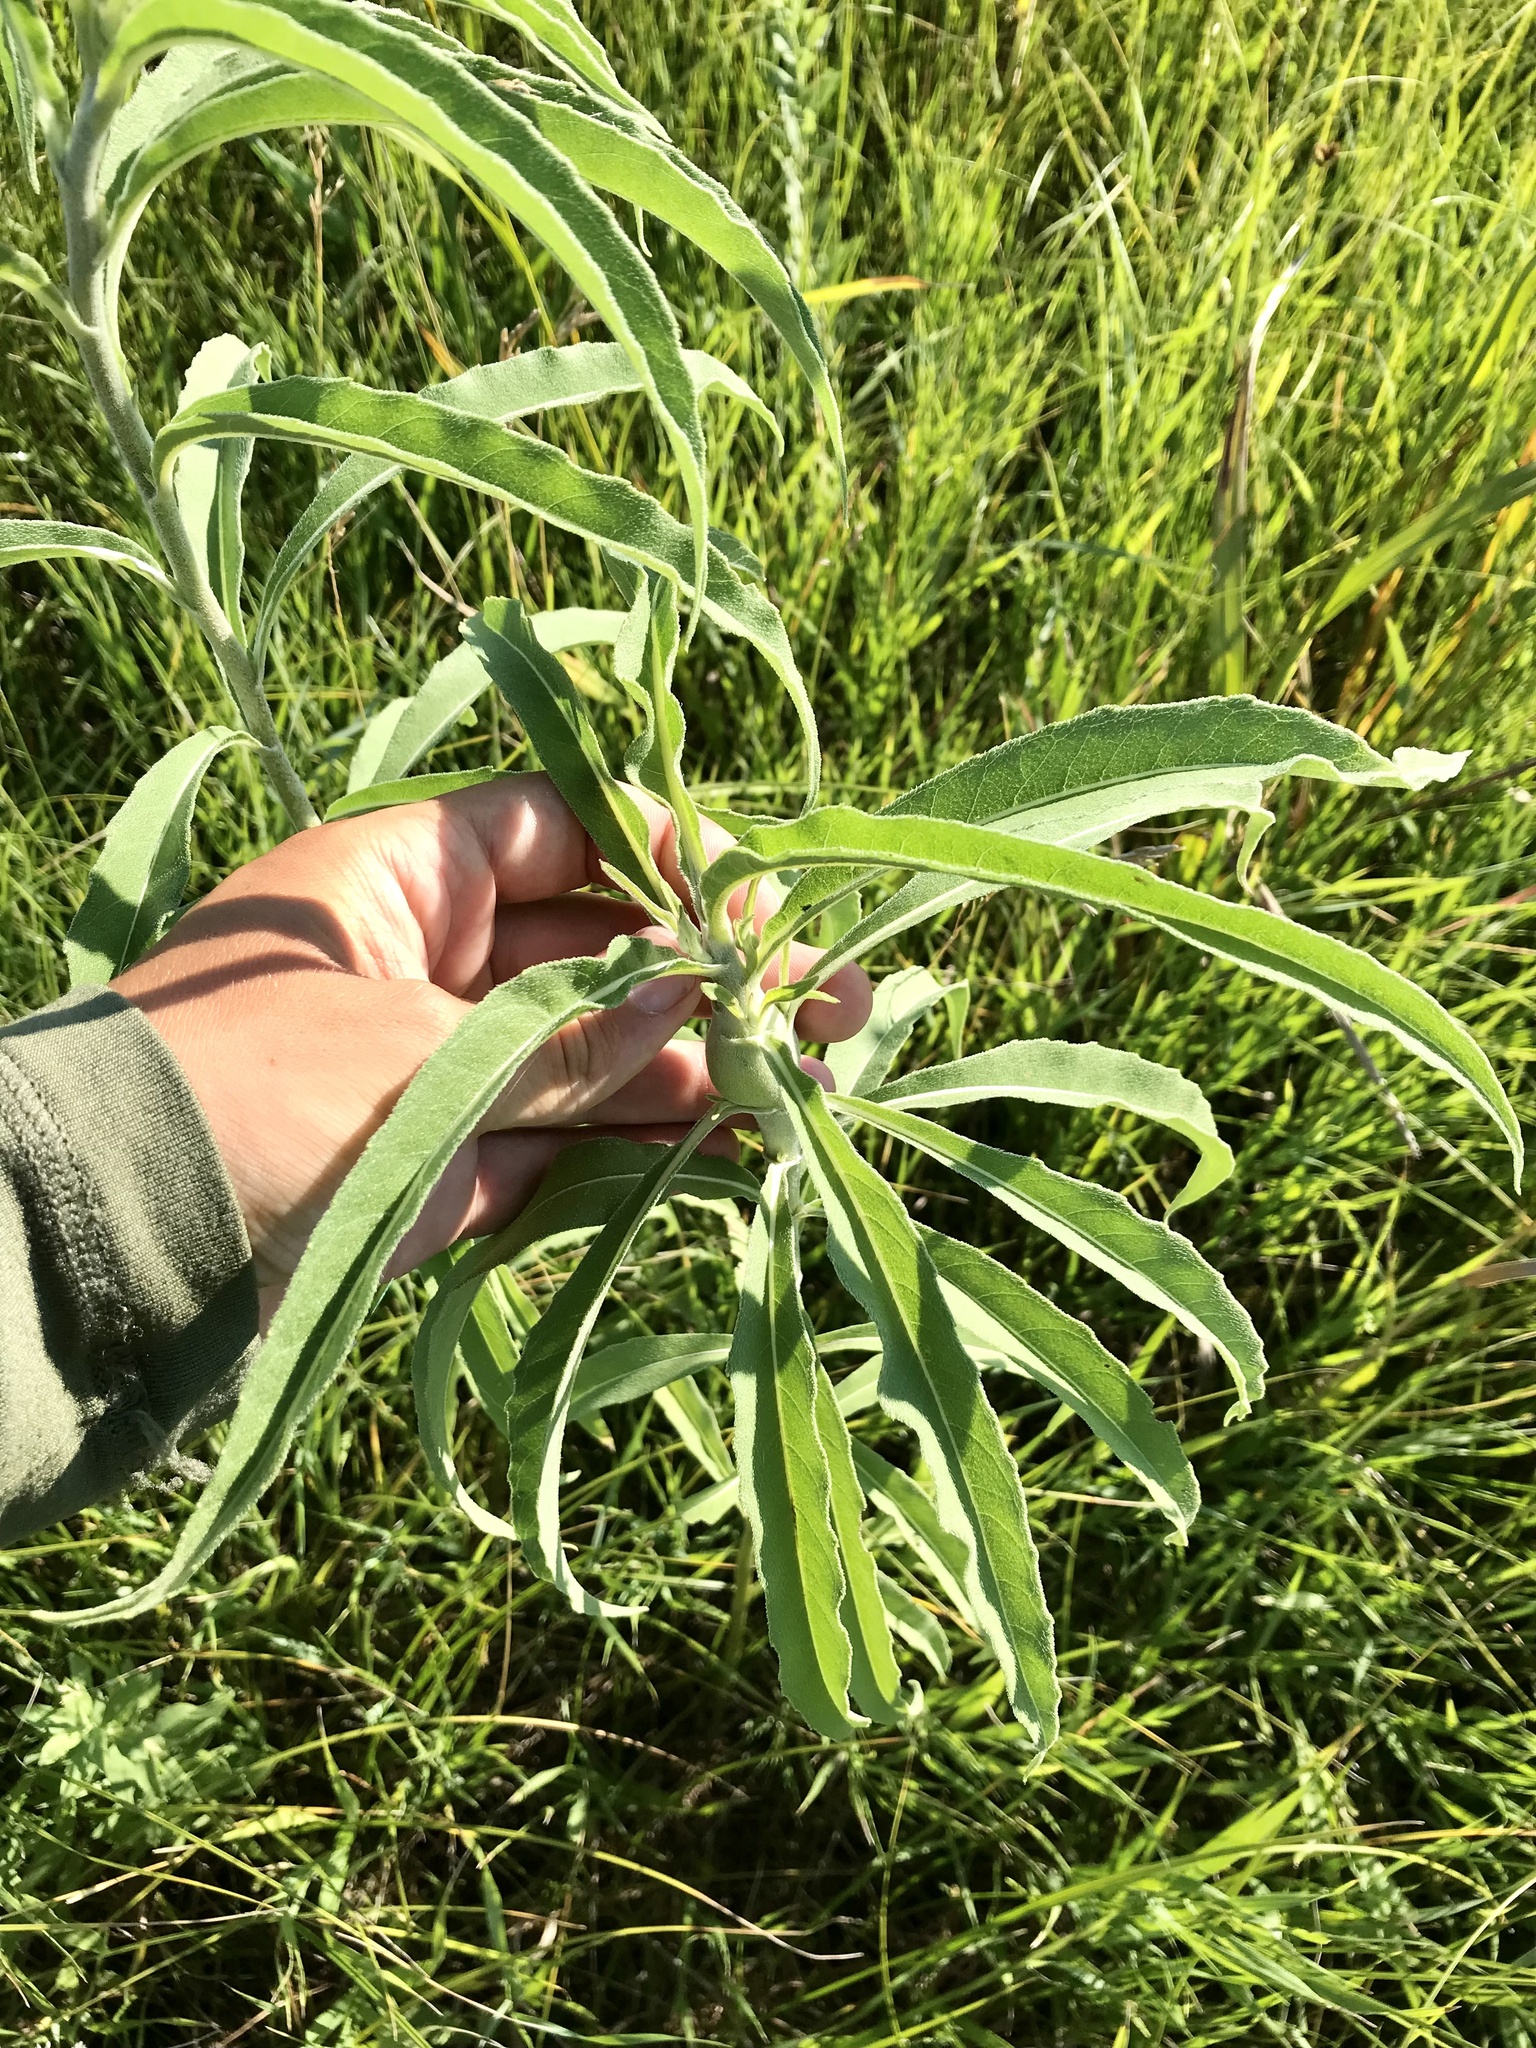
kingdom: Plantae
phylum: Tracheophyta
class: Magnoliopsida
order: Asterales
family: Asteraceae
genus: Helianthus
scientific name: Helianthus maximiliani
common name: Maximilian's sunflower
